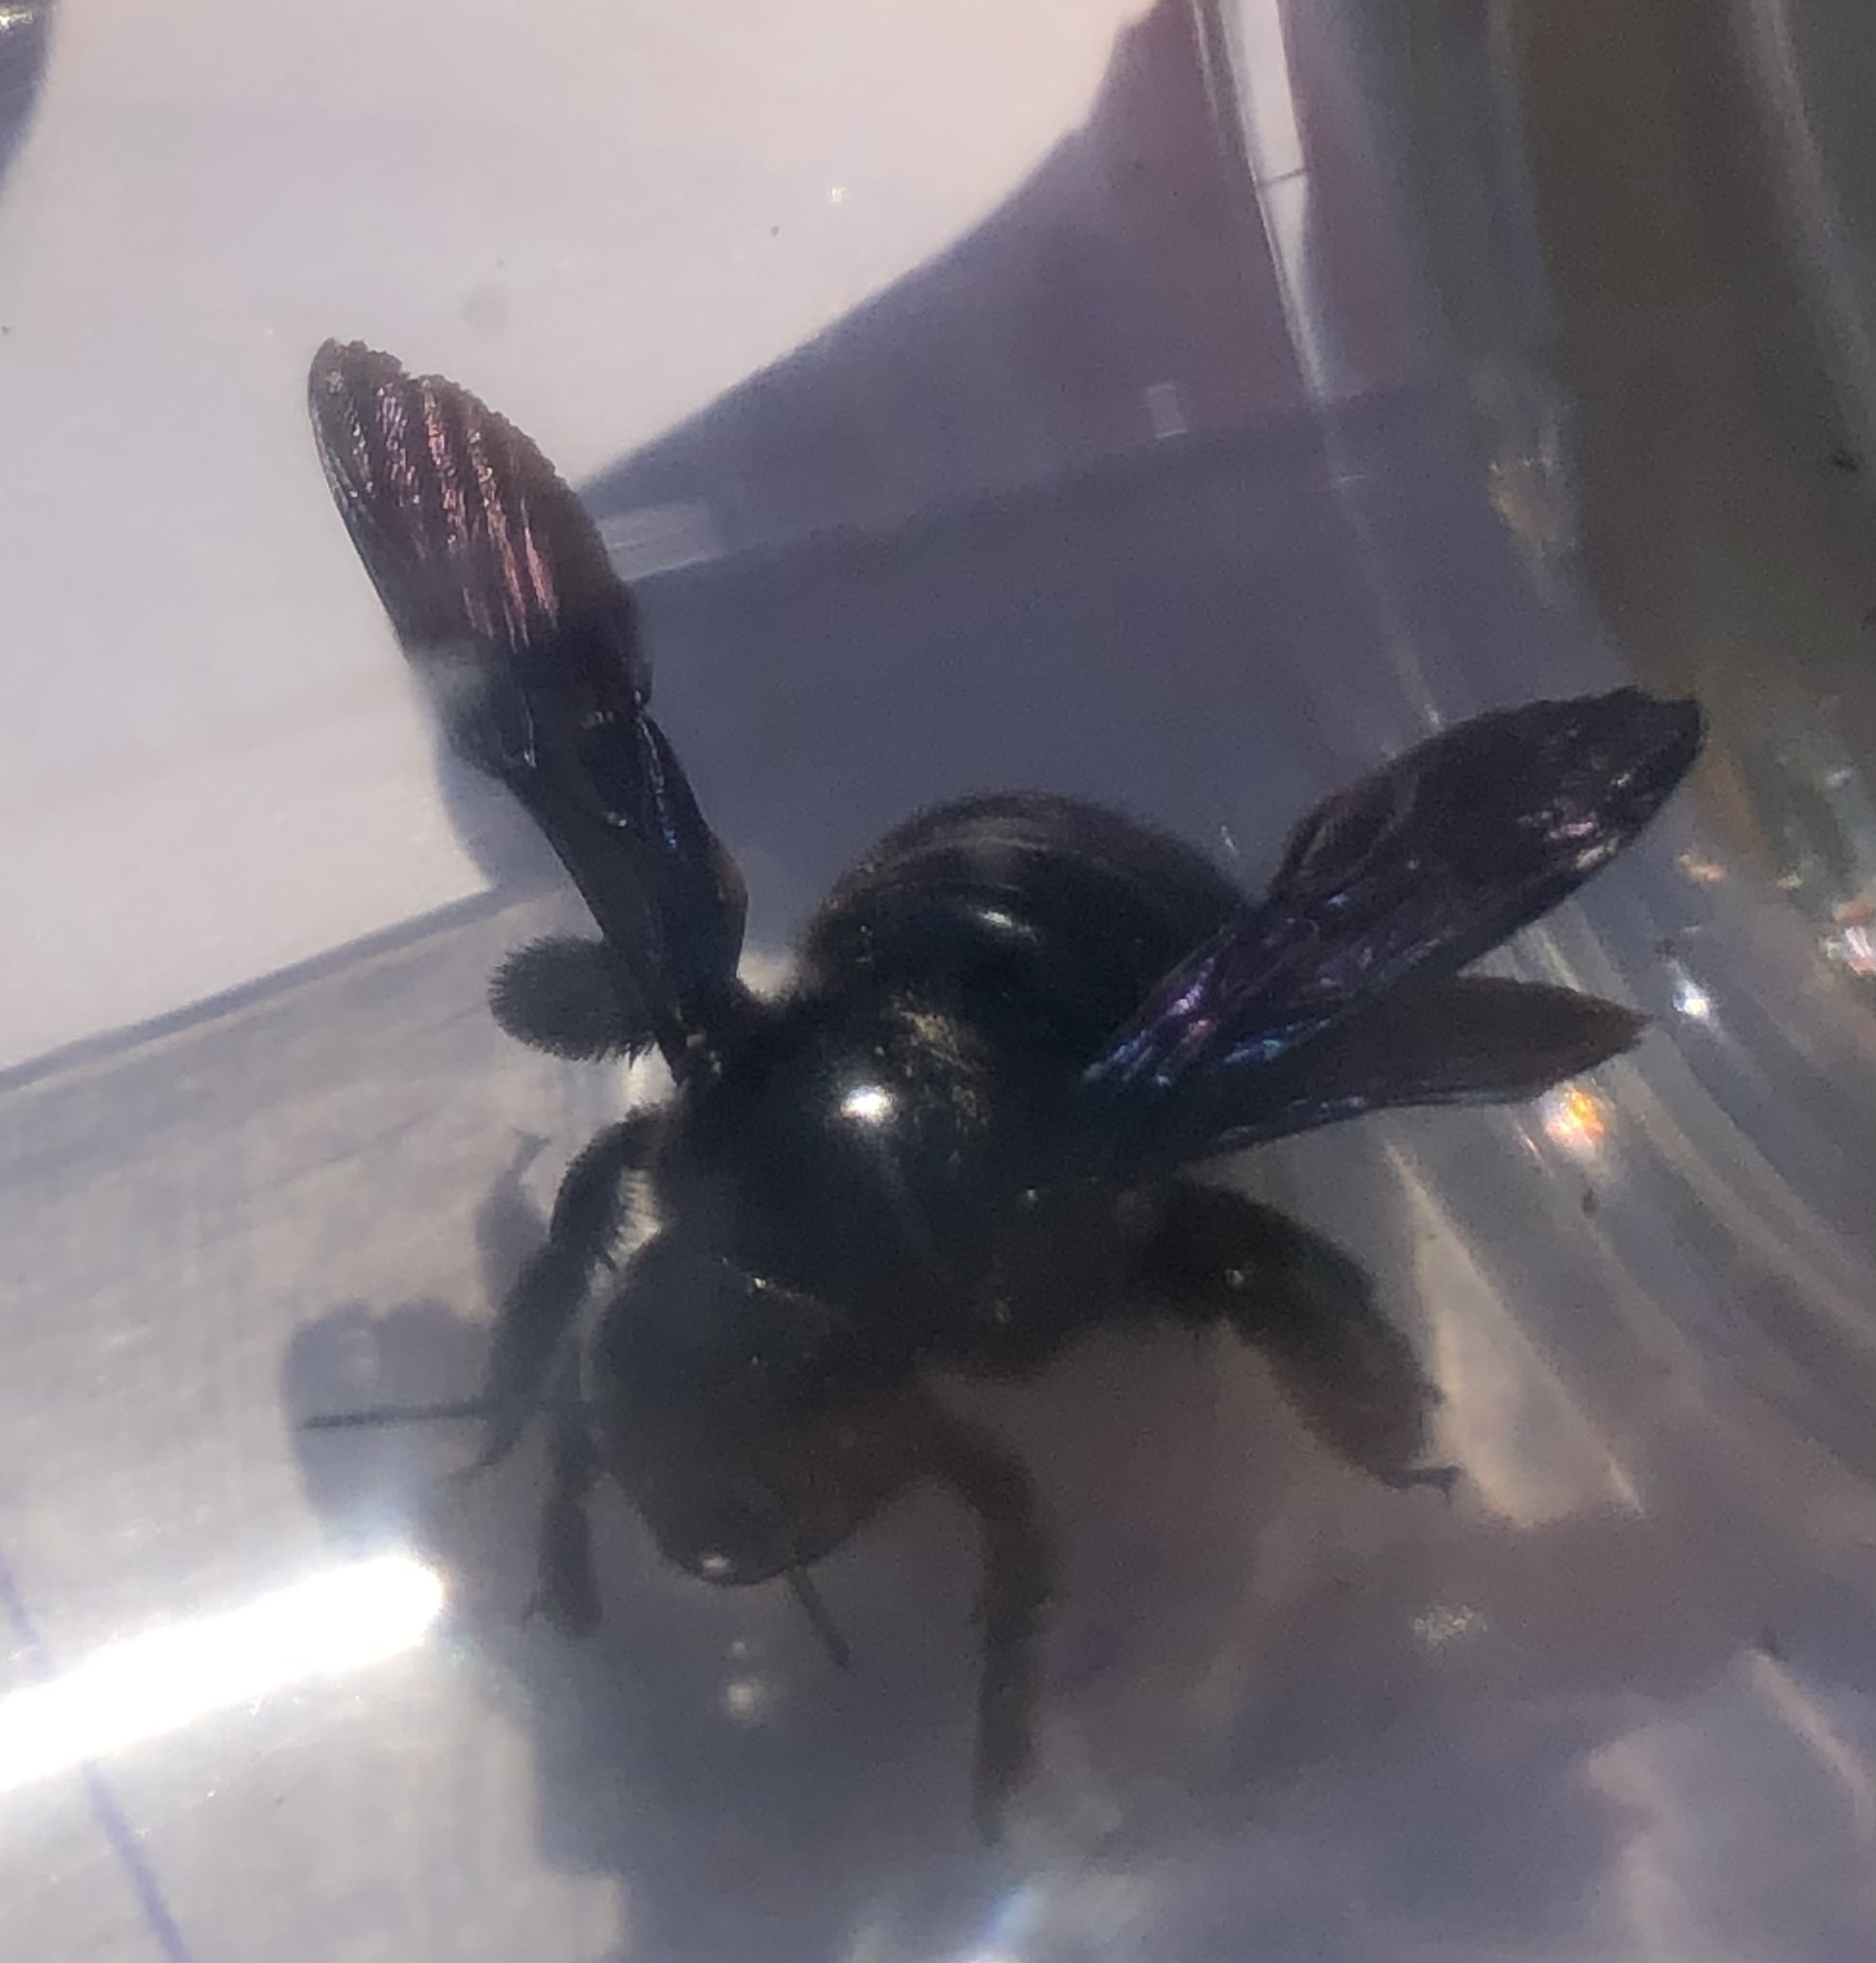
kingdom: Animalia
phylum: Arthropoda
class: Insecta
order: Hymenoptera
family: Apidae
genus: Xylocopa
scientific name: Xylocopa violacea
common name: Violet carpenter bee
